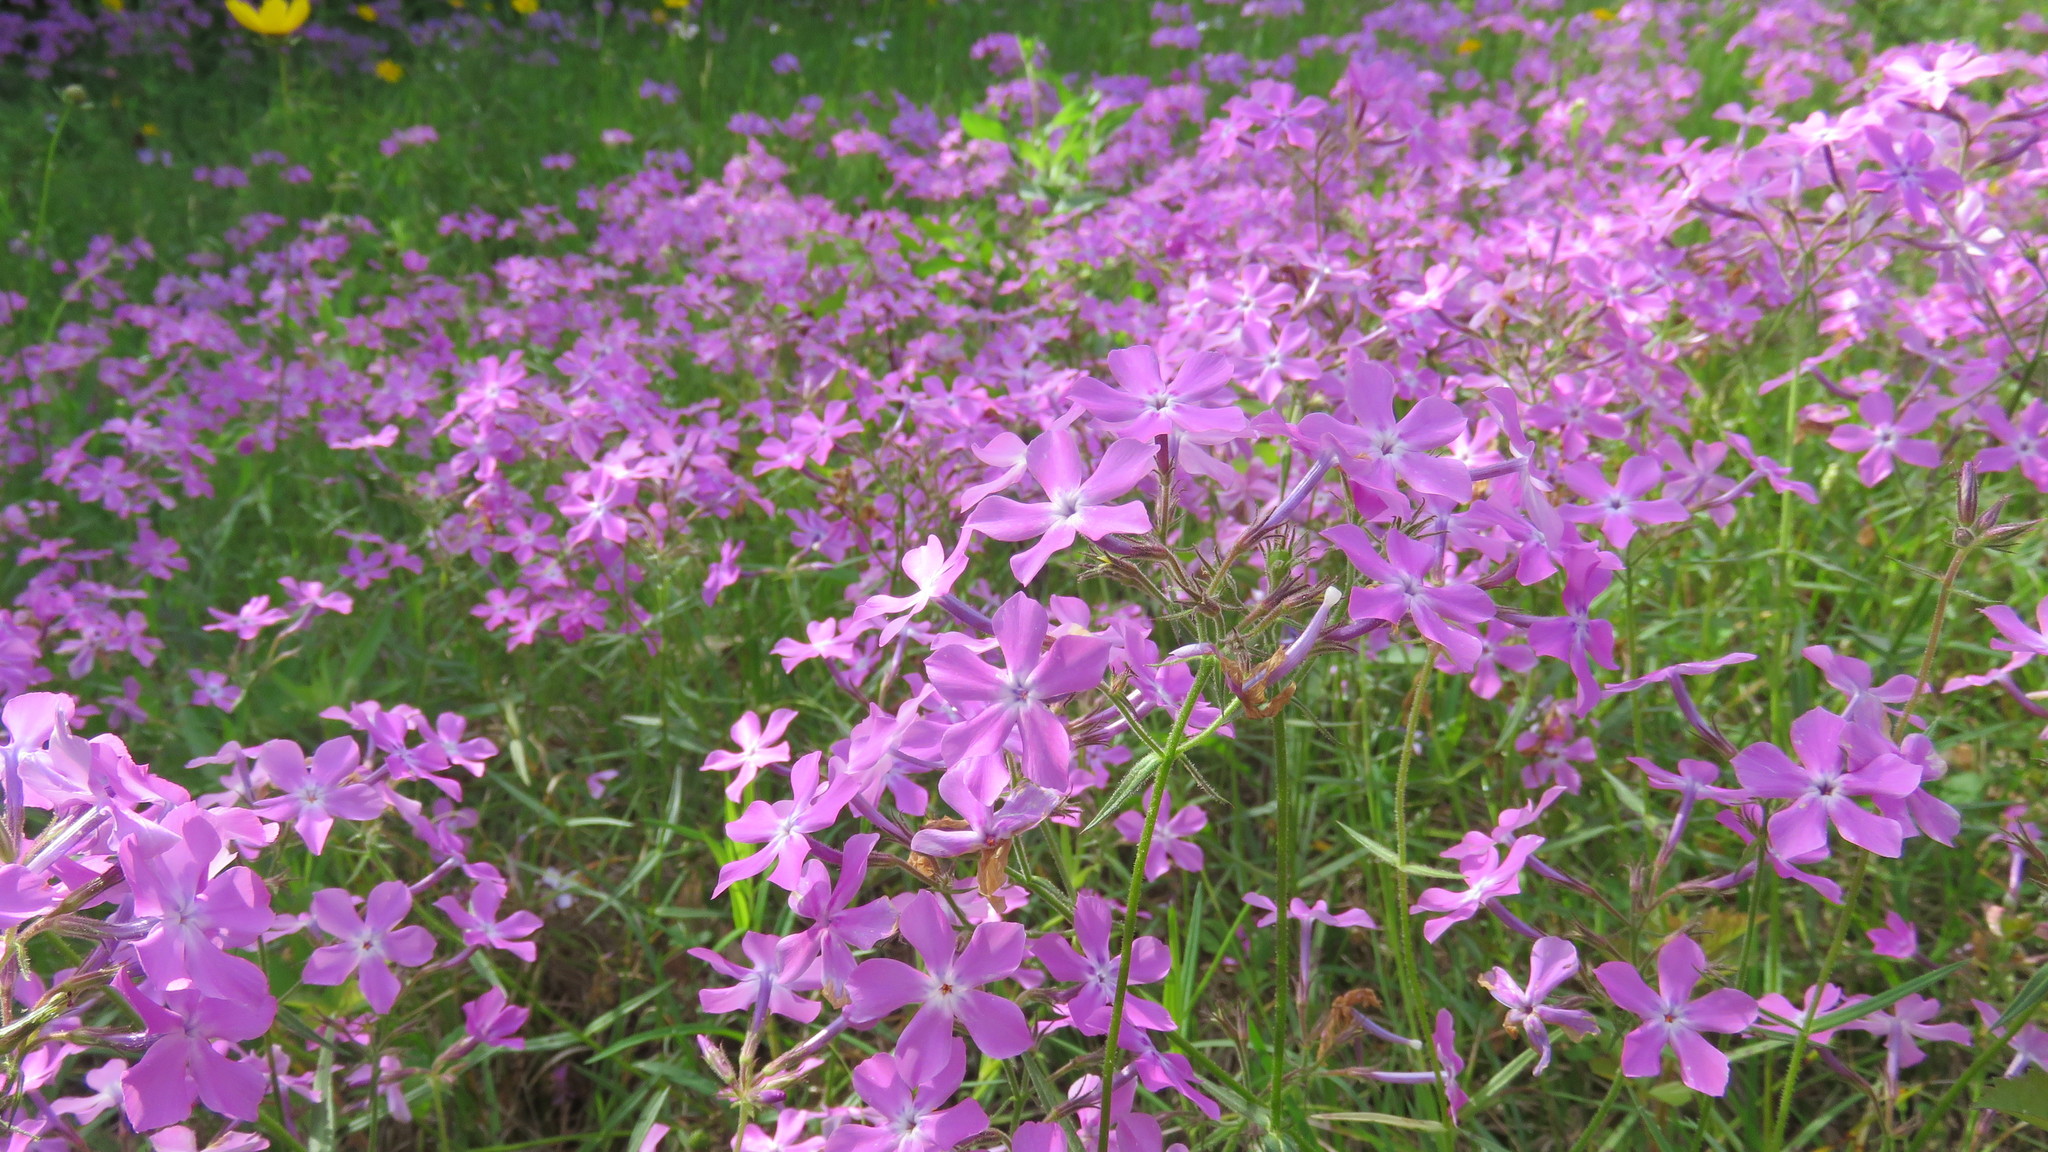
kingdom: Plantae
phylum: Tracheophyta
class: Magnoliopsida
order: Ericales
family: Polemoniaceae
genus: Phlox
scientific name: Phlox pilosa
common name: Prairie phlox
